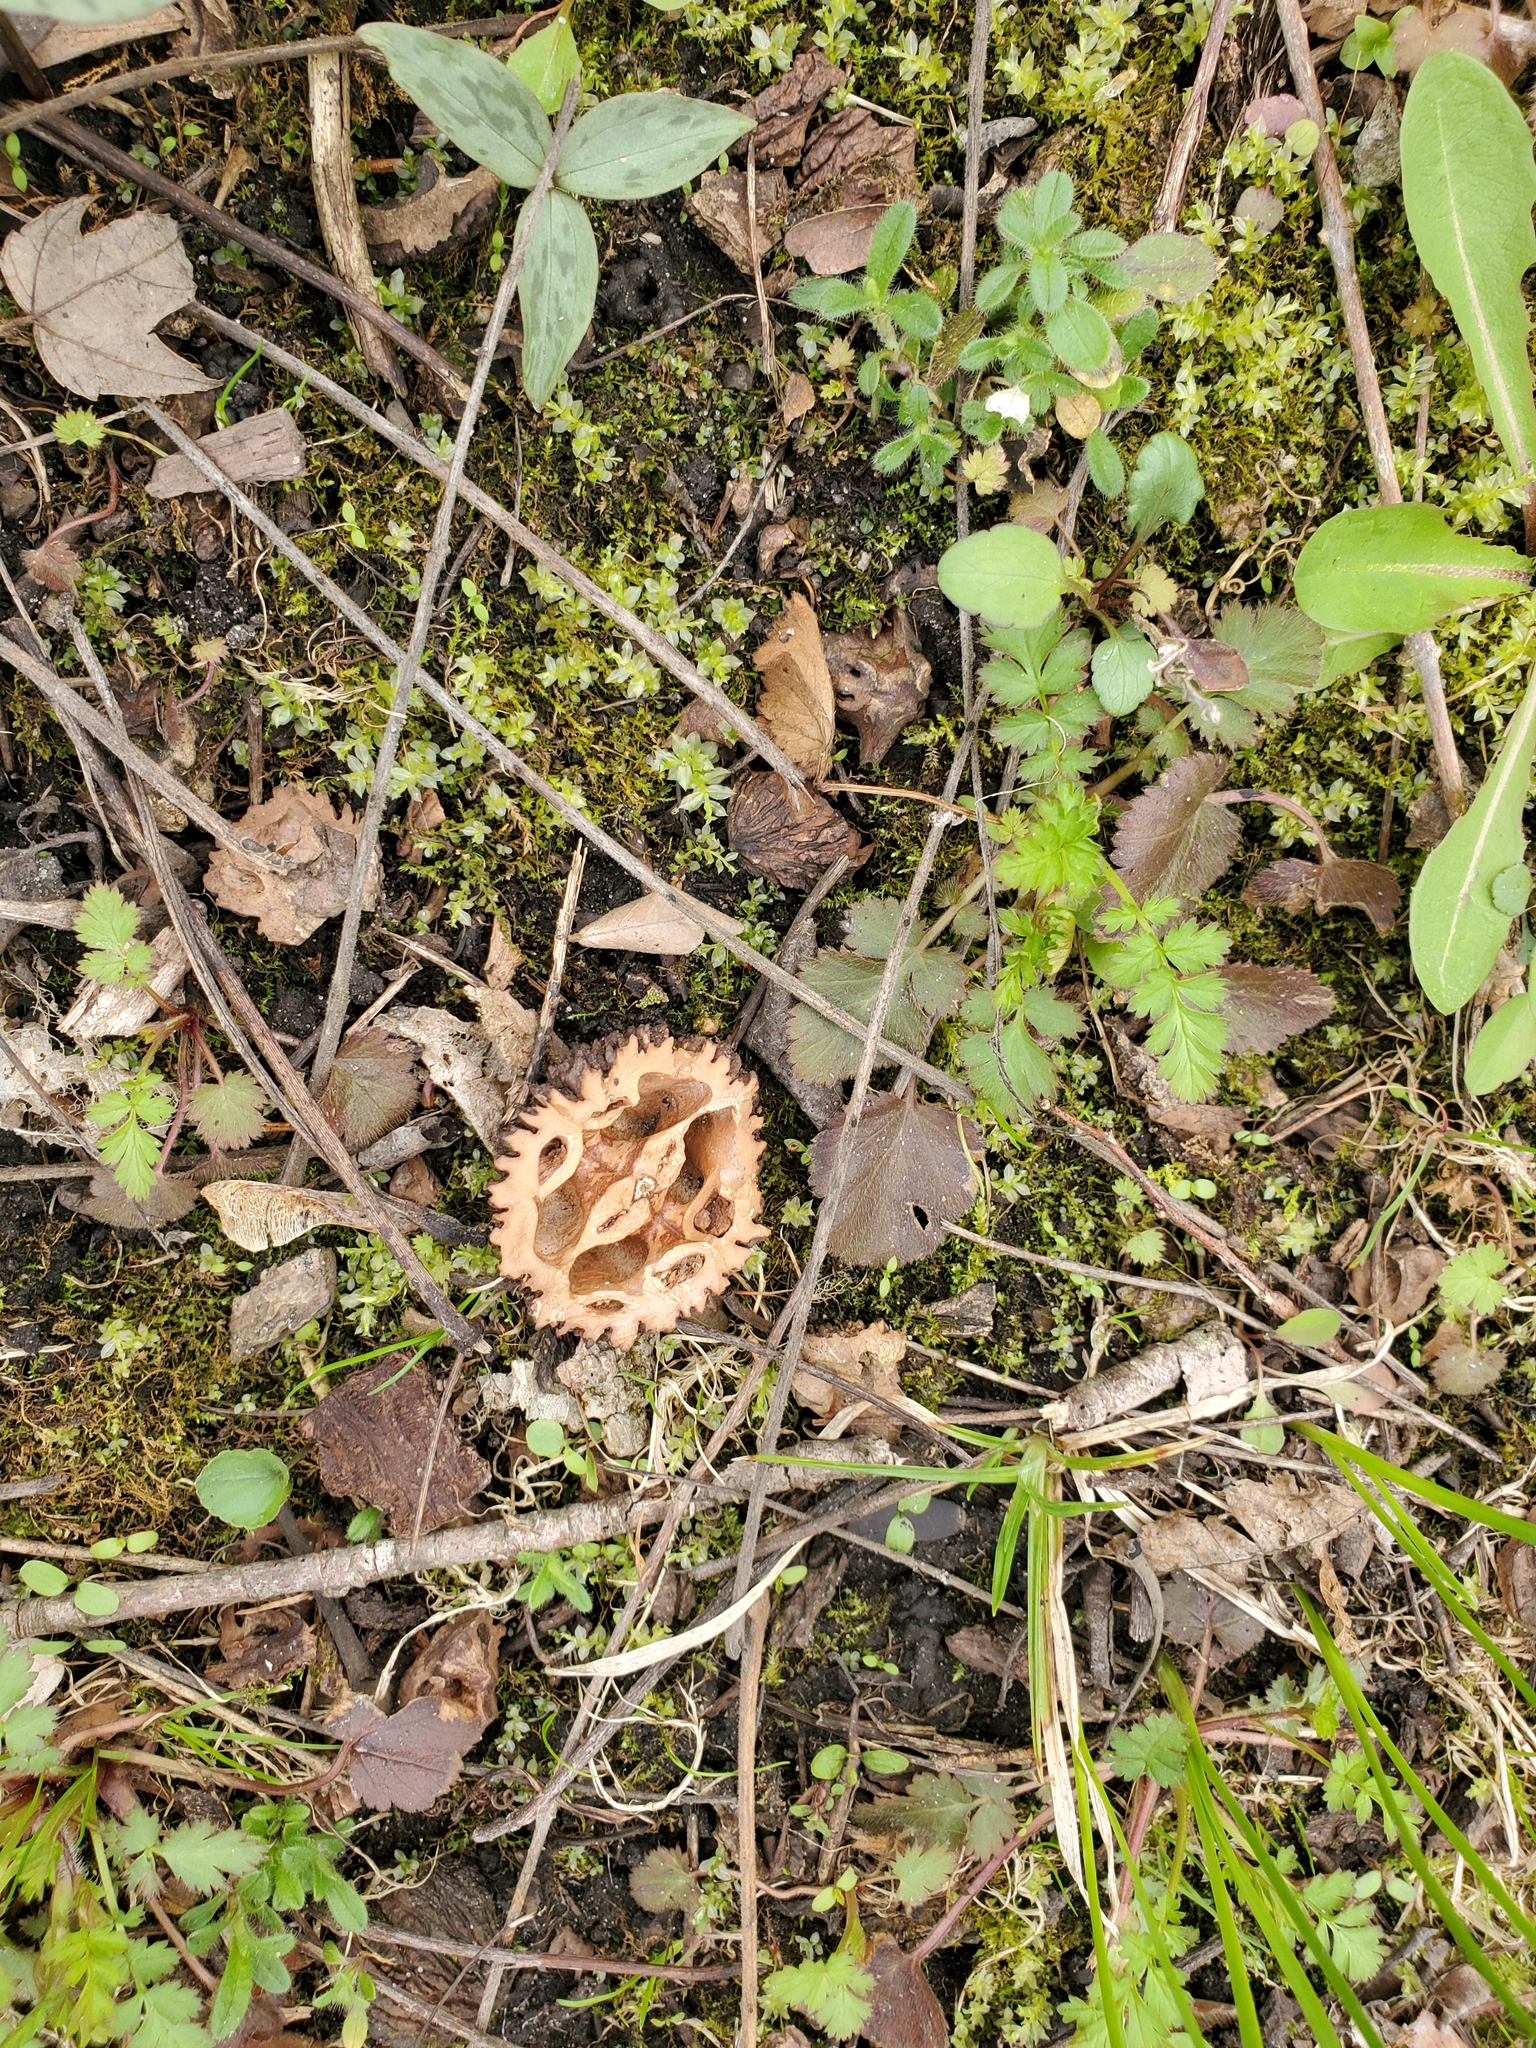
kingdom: Plantae
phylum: Tracheophyta
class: Magnoliopsida
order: Fagales
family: Juglandaceae
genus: Juglans
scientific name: Juglans nigra
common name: Black walnut
